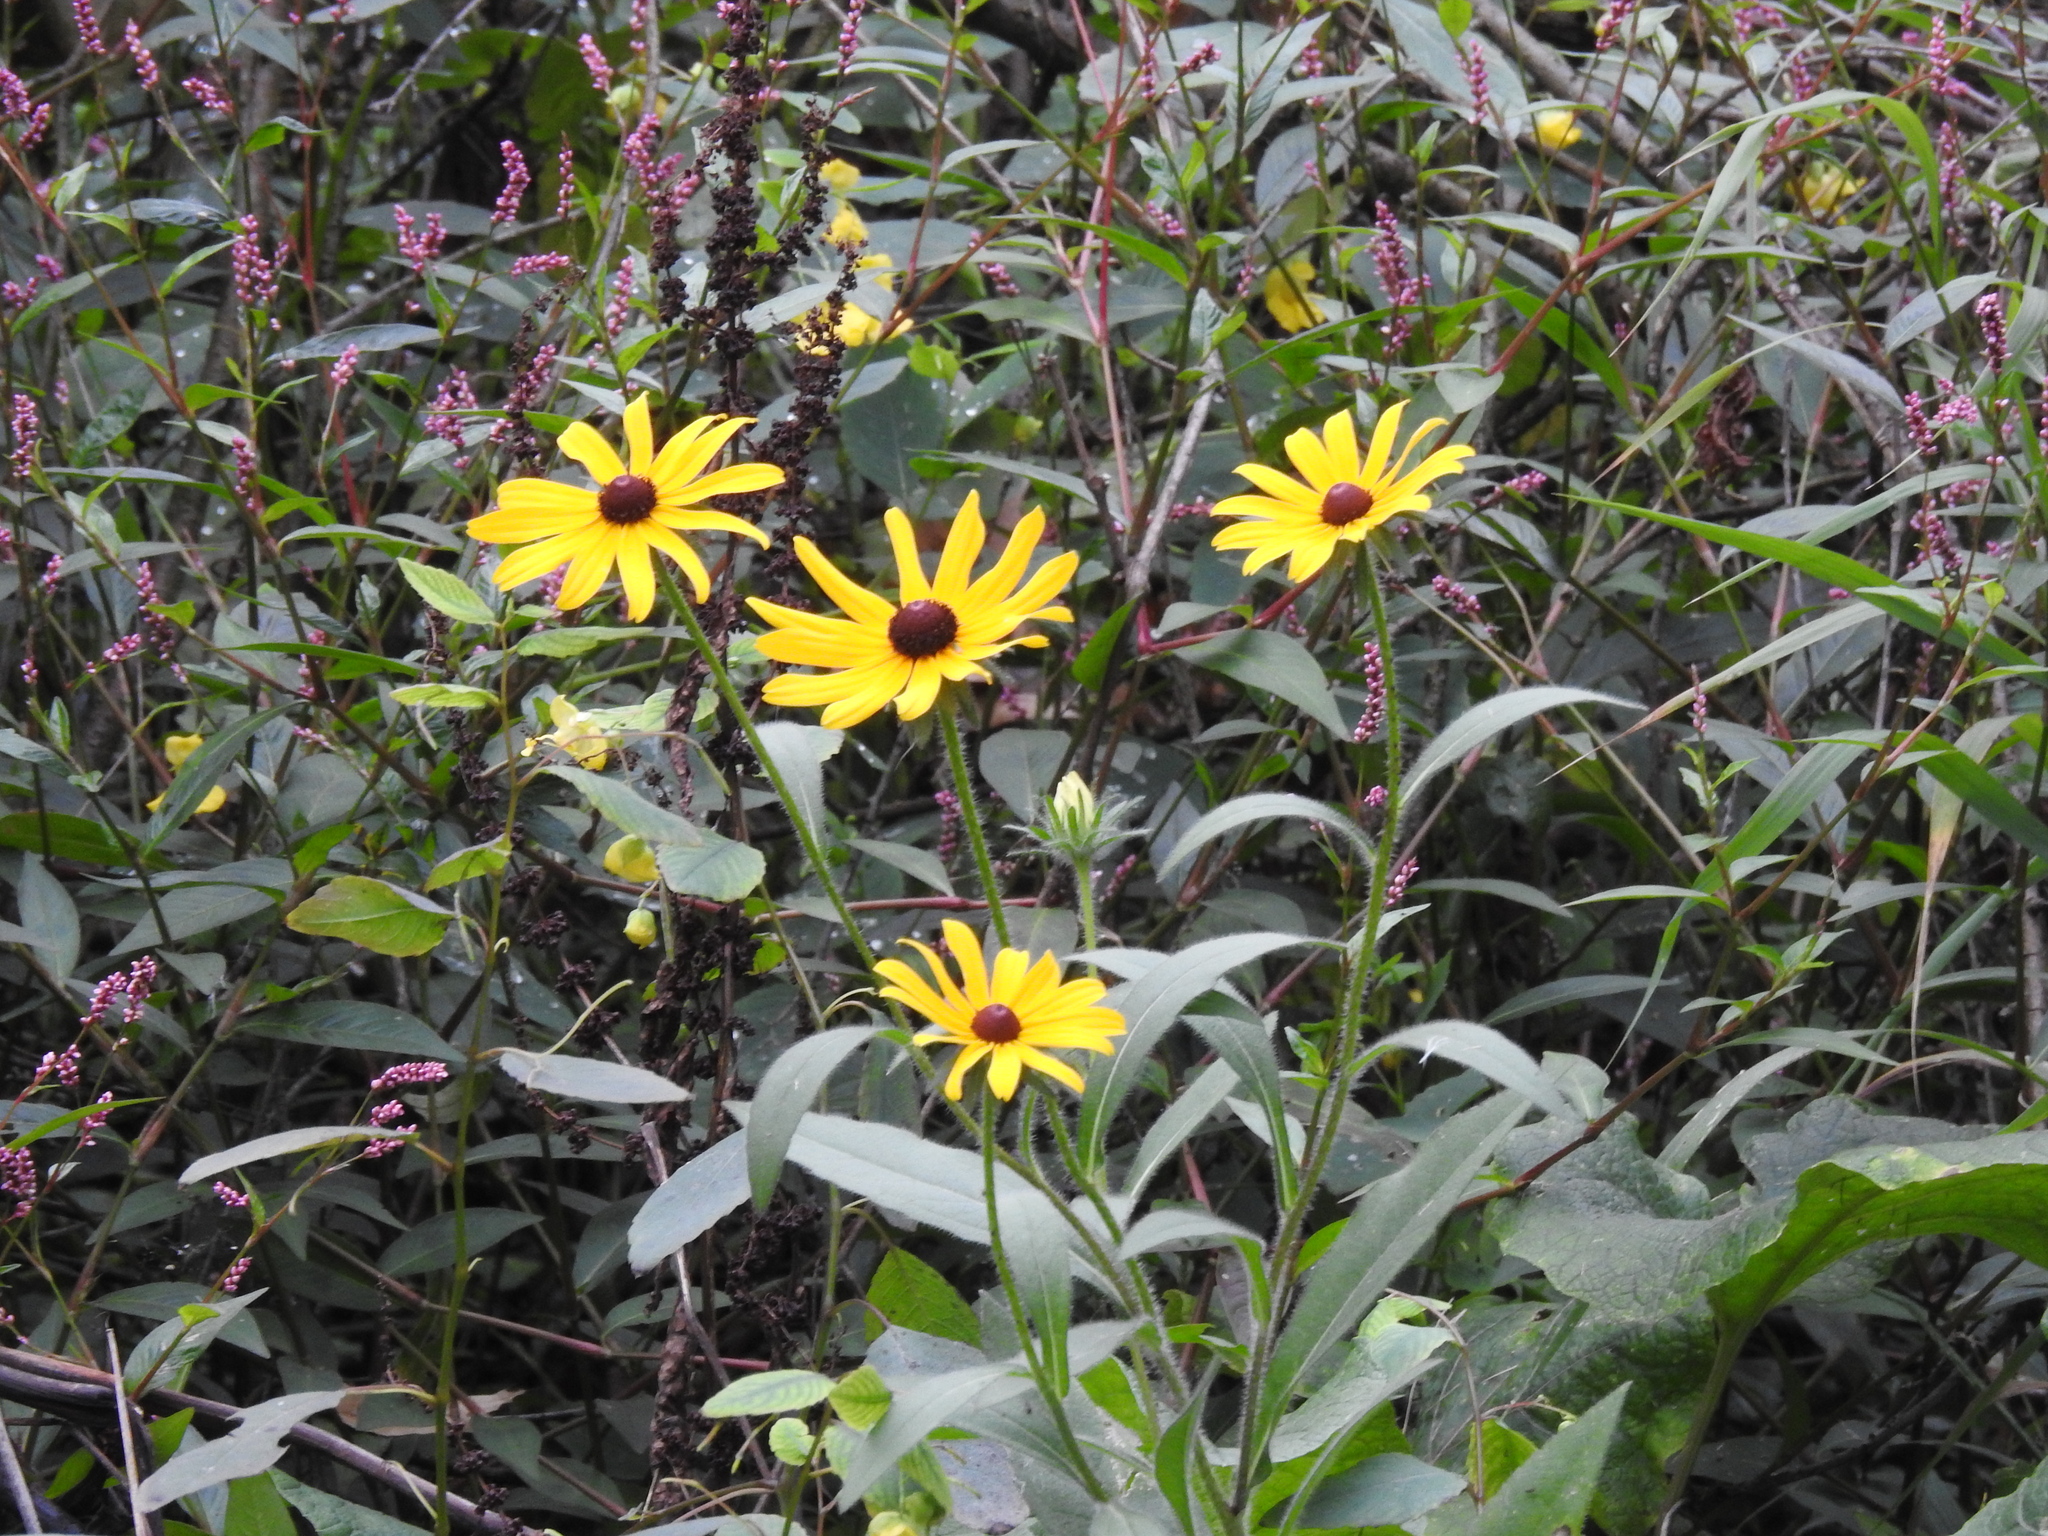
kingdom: Plantae
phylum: Tracheophyta
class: Magnoliopsida
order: Asterales
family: Asteraceae
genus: Rudbeckia
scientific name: Rudbeckia hirta
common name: Black-eyed-susan
